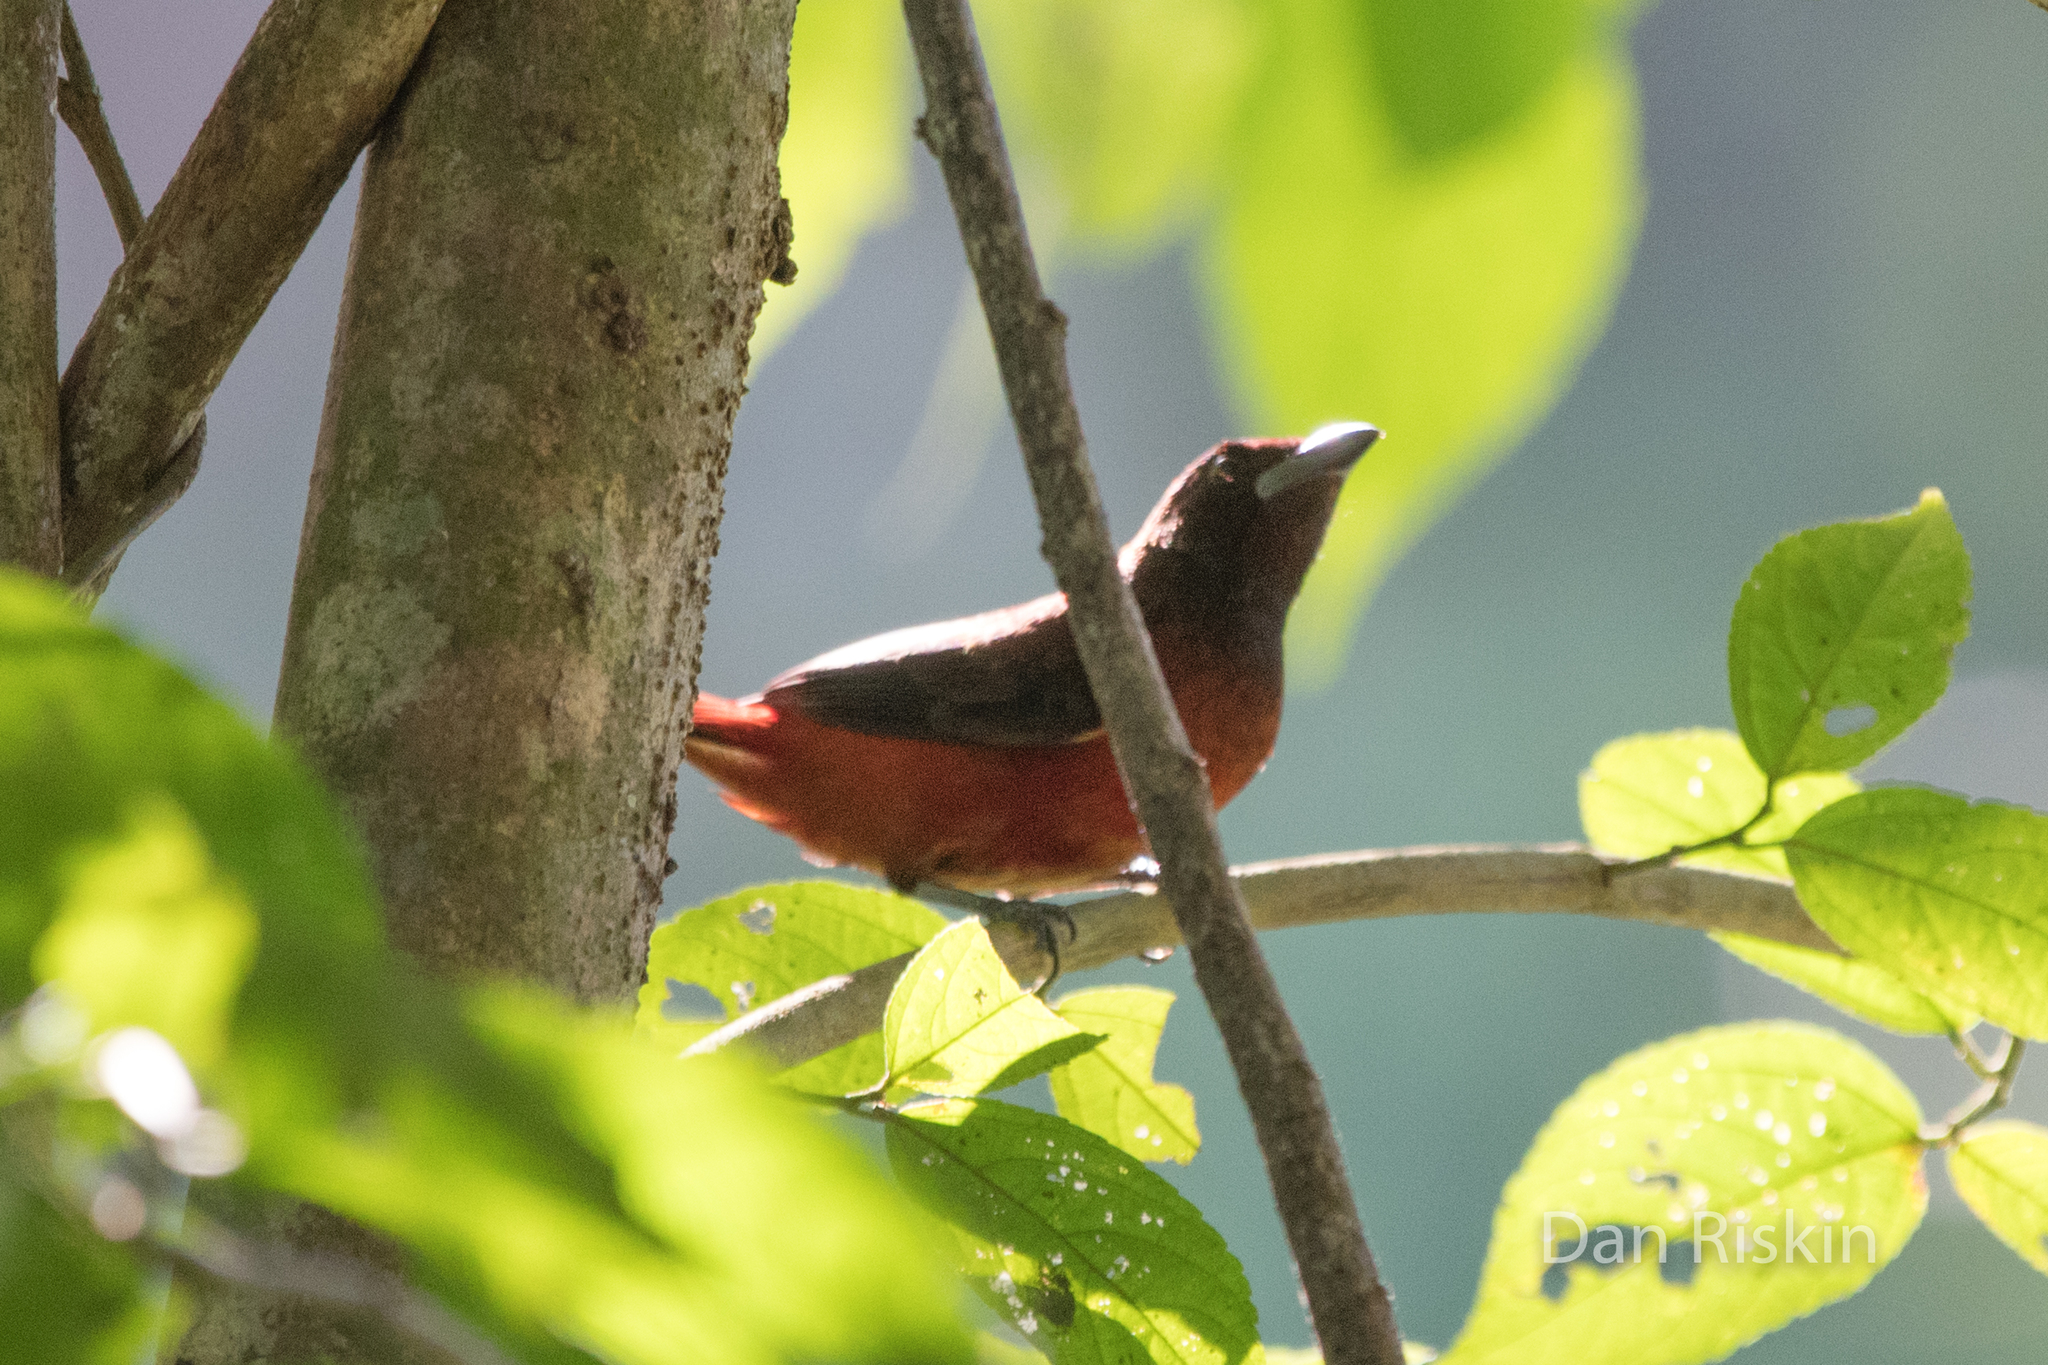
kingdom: Animalia
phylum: Chordata
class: Aves
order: Passeriformes
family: Thraupidae
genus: Ramphocelus
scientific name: Ramphocelus dimidiatus
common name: Crimson-backed tanager
